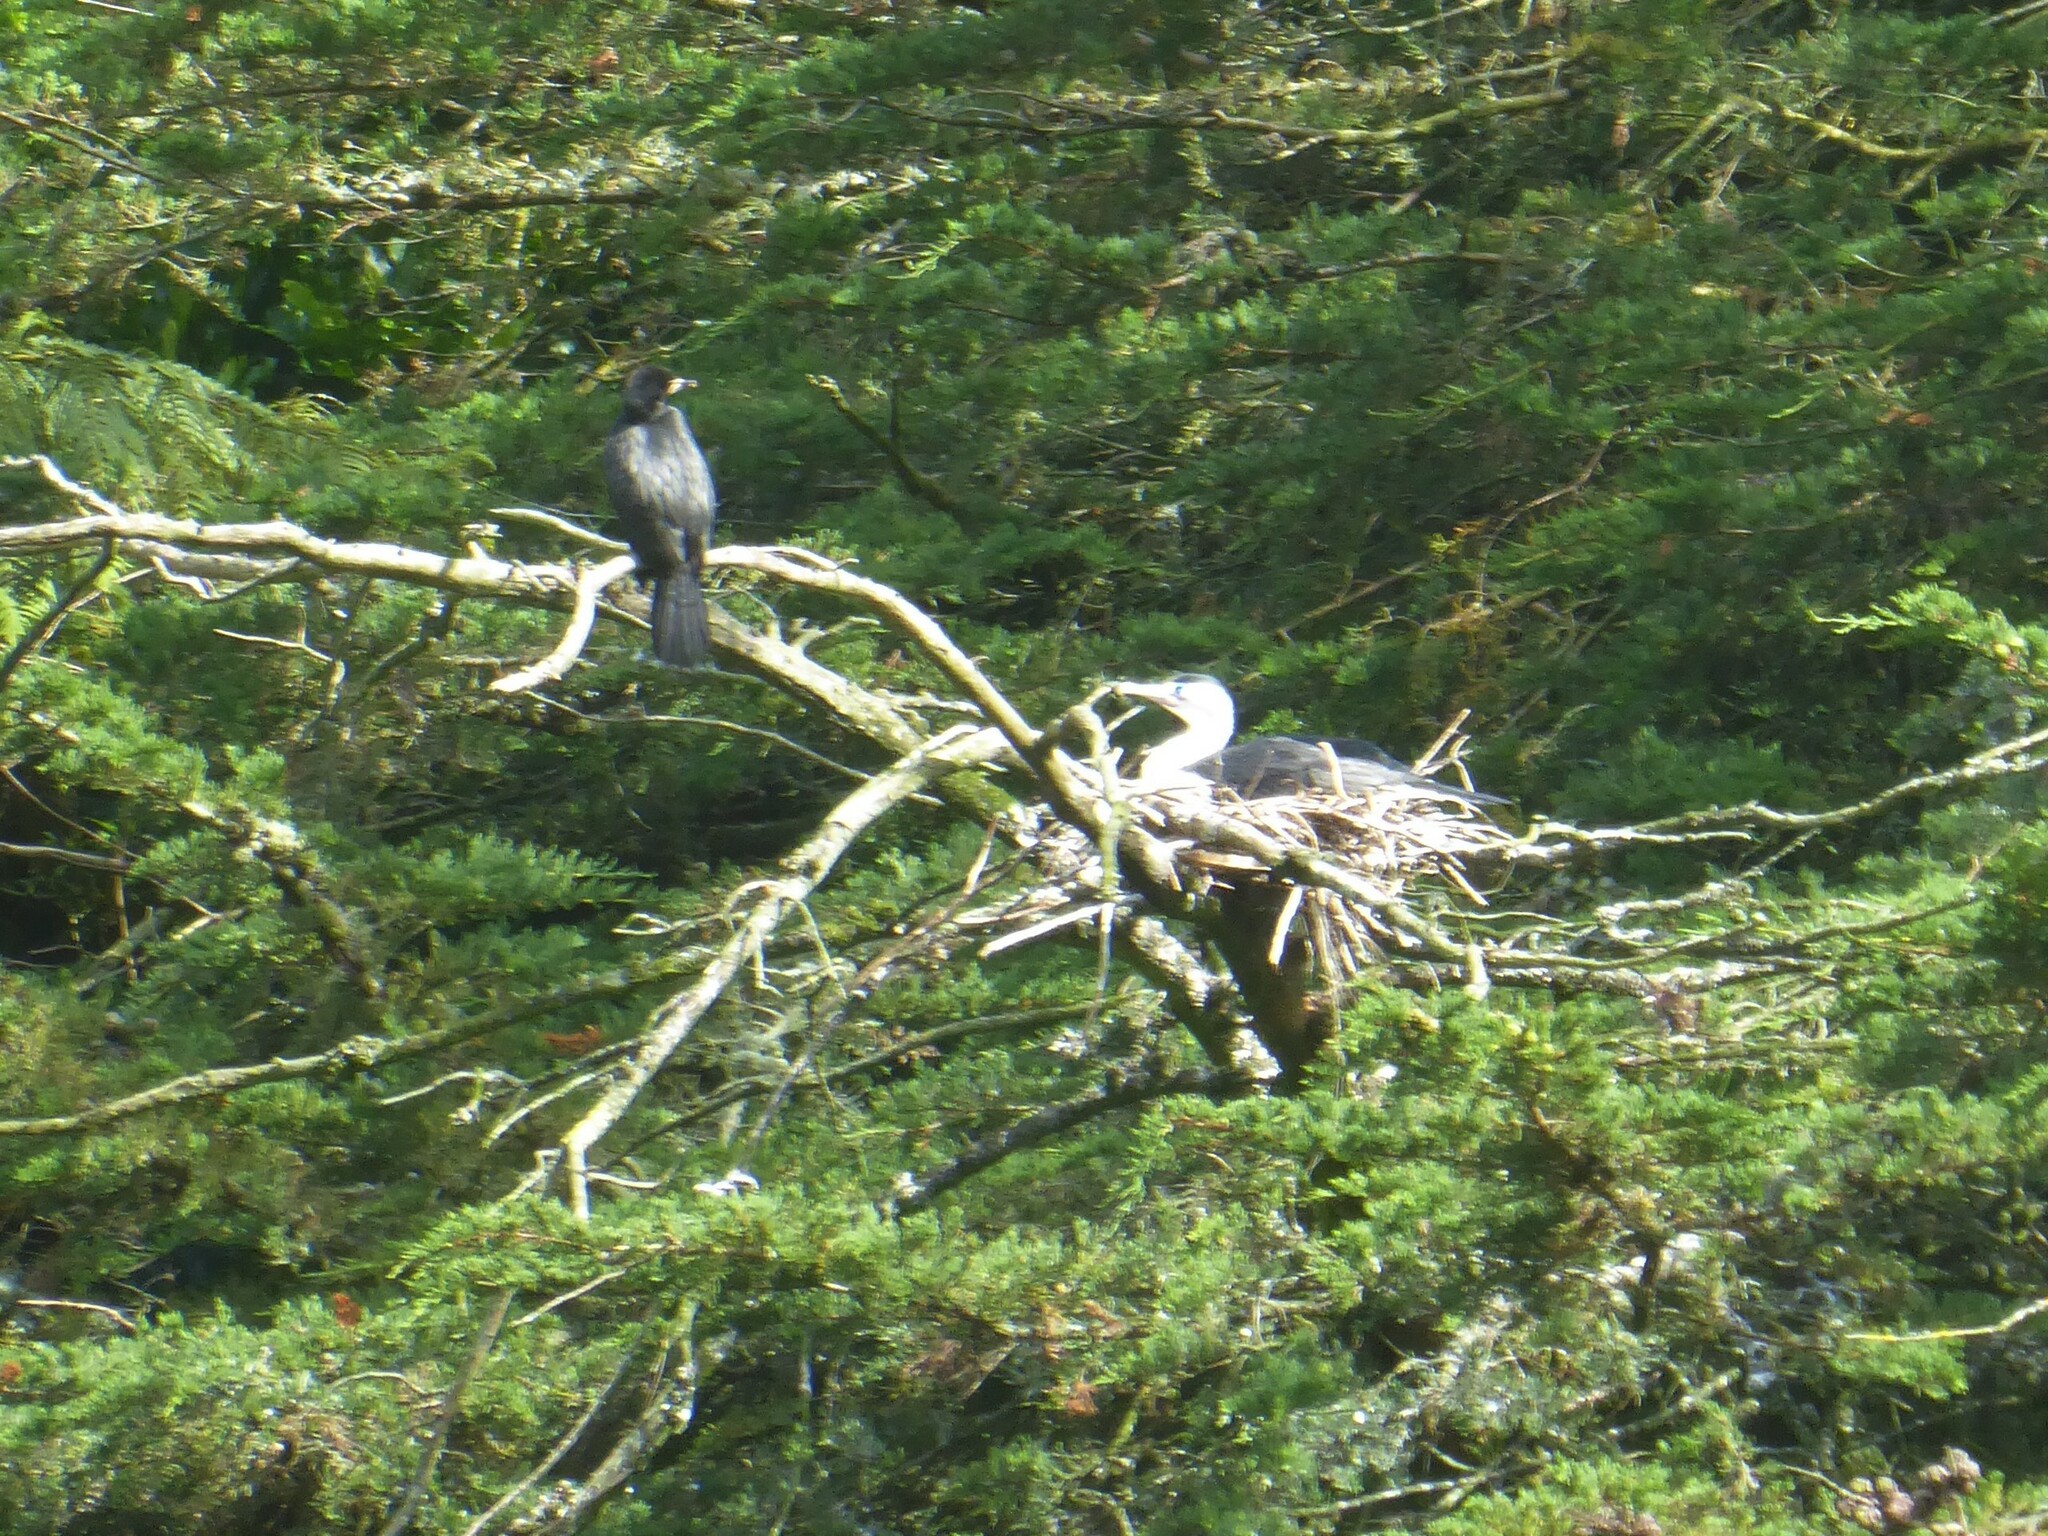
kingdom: Animalia
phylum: Chordata
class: Aves
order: Suliformes
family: Phalacrocoracidae
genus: Phalacrocorax
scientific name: Phalacrocorax varius
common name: Pied cormorant
